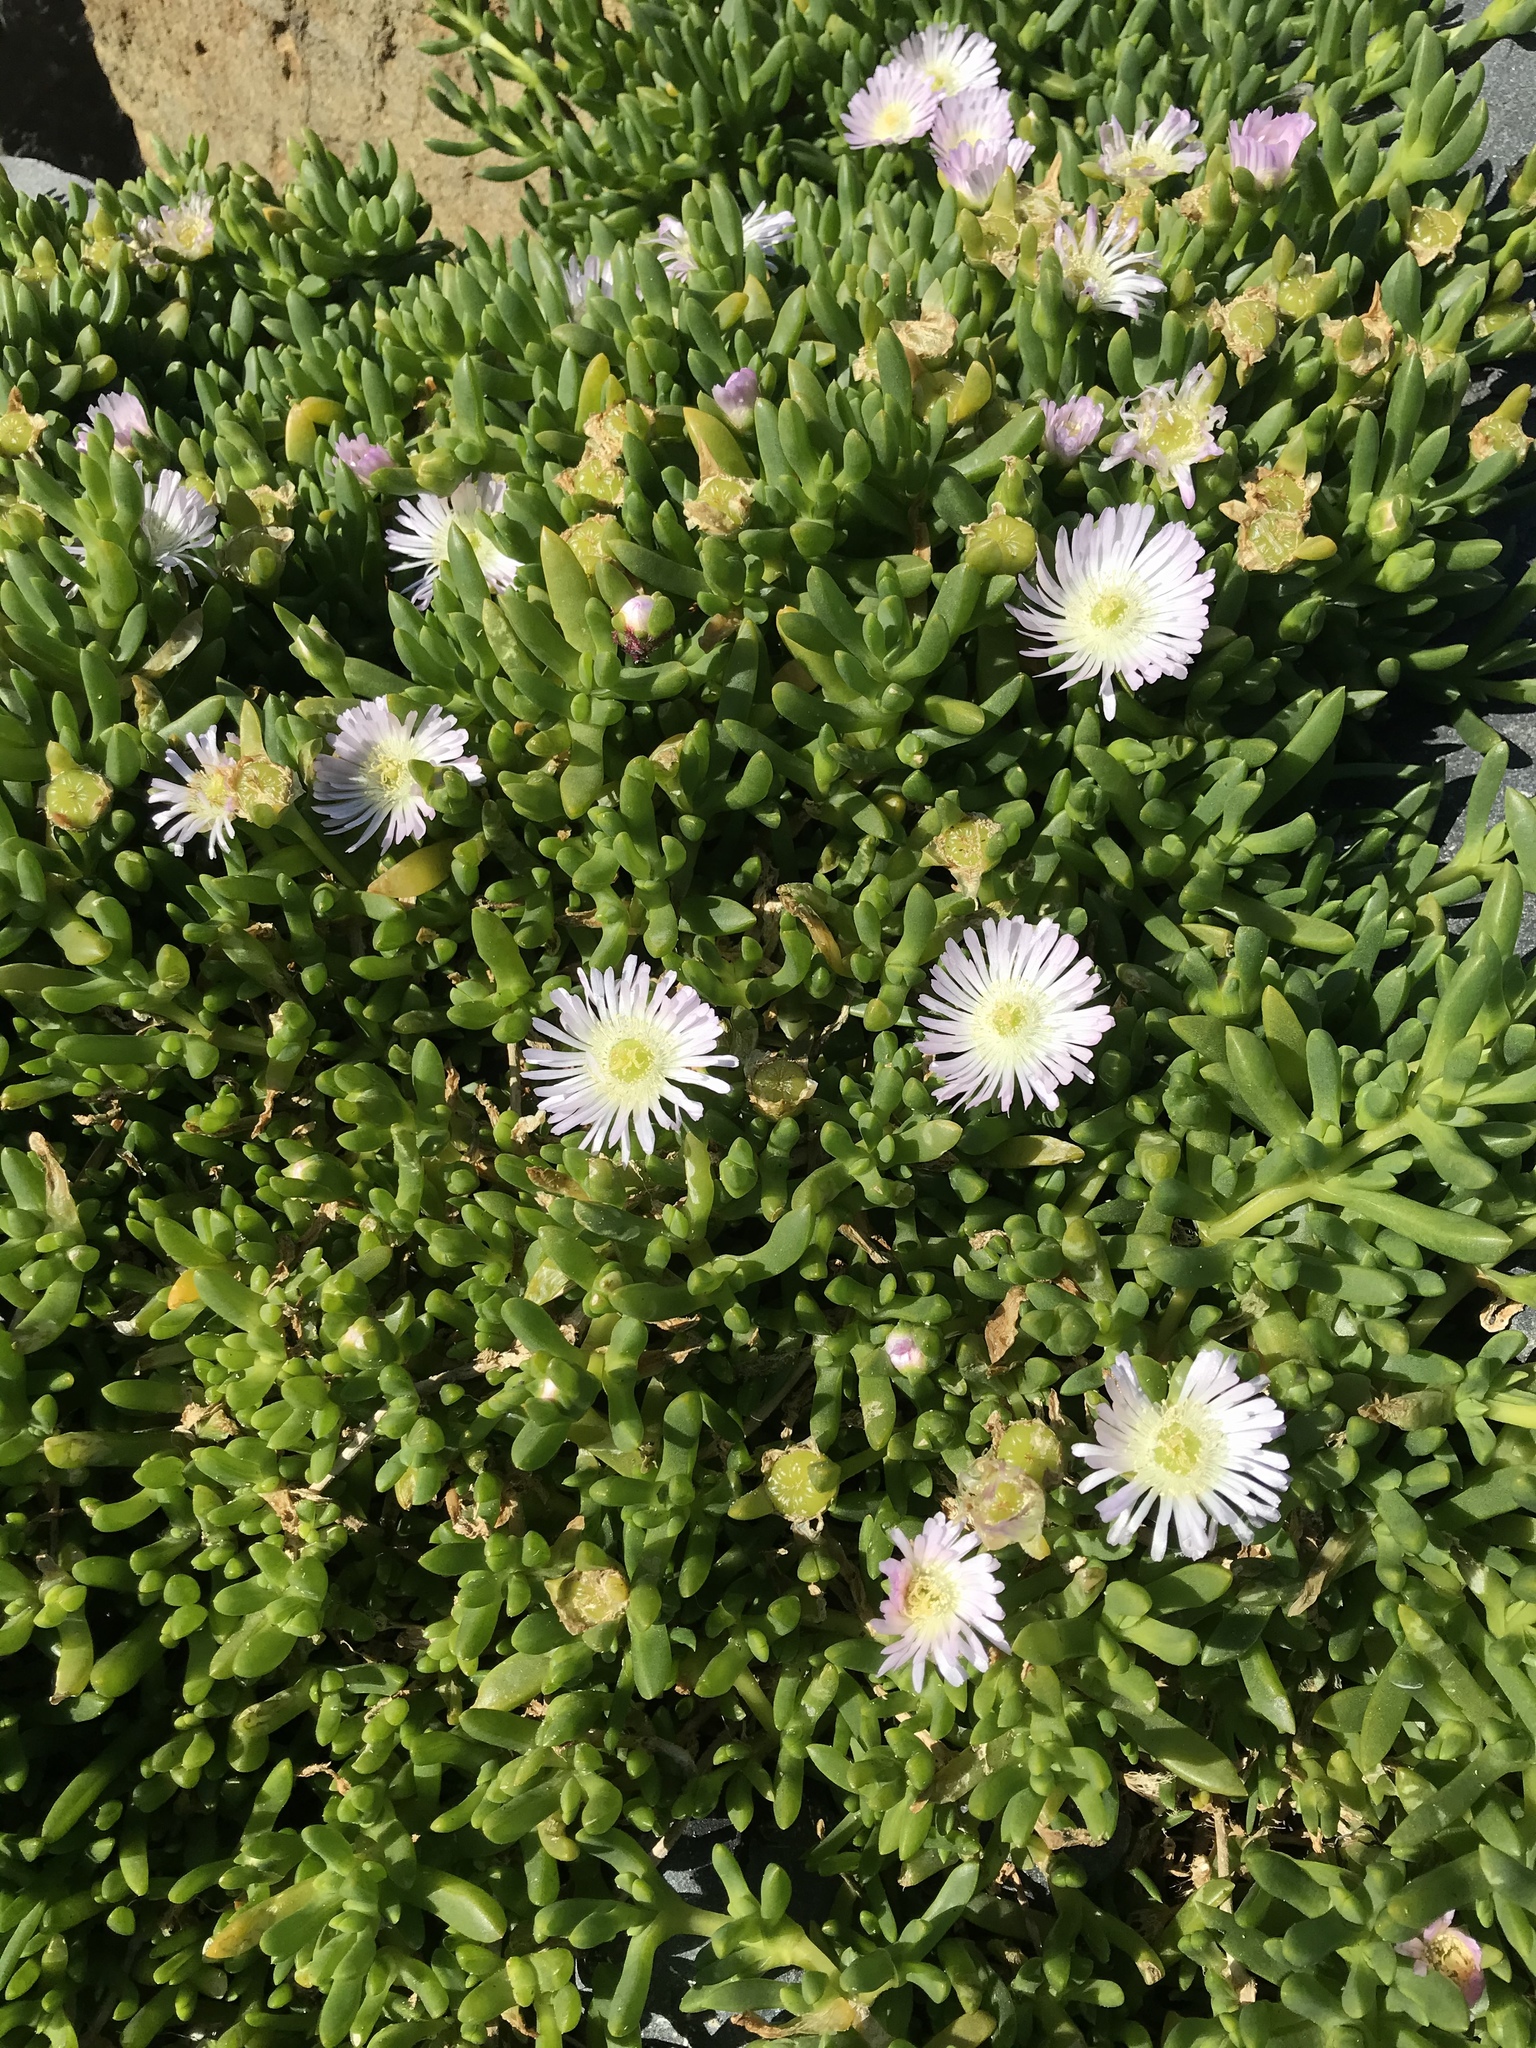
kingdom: Plantae
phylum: Tracheophyta
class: Magnoliopsida
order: Caryophyllales
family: Aizoaceae
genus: Disphyma
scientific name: Disphyma australe
